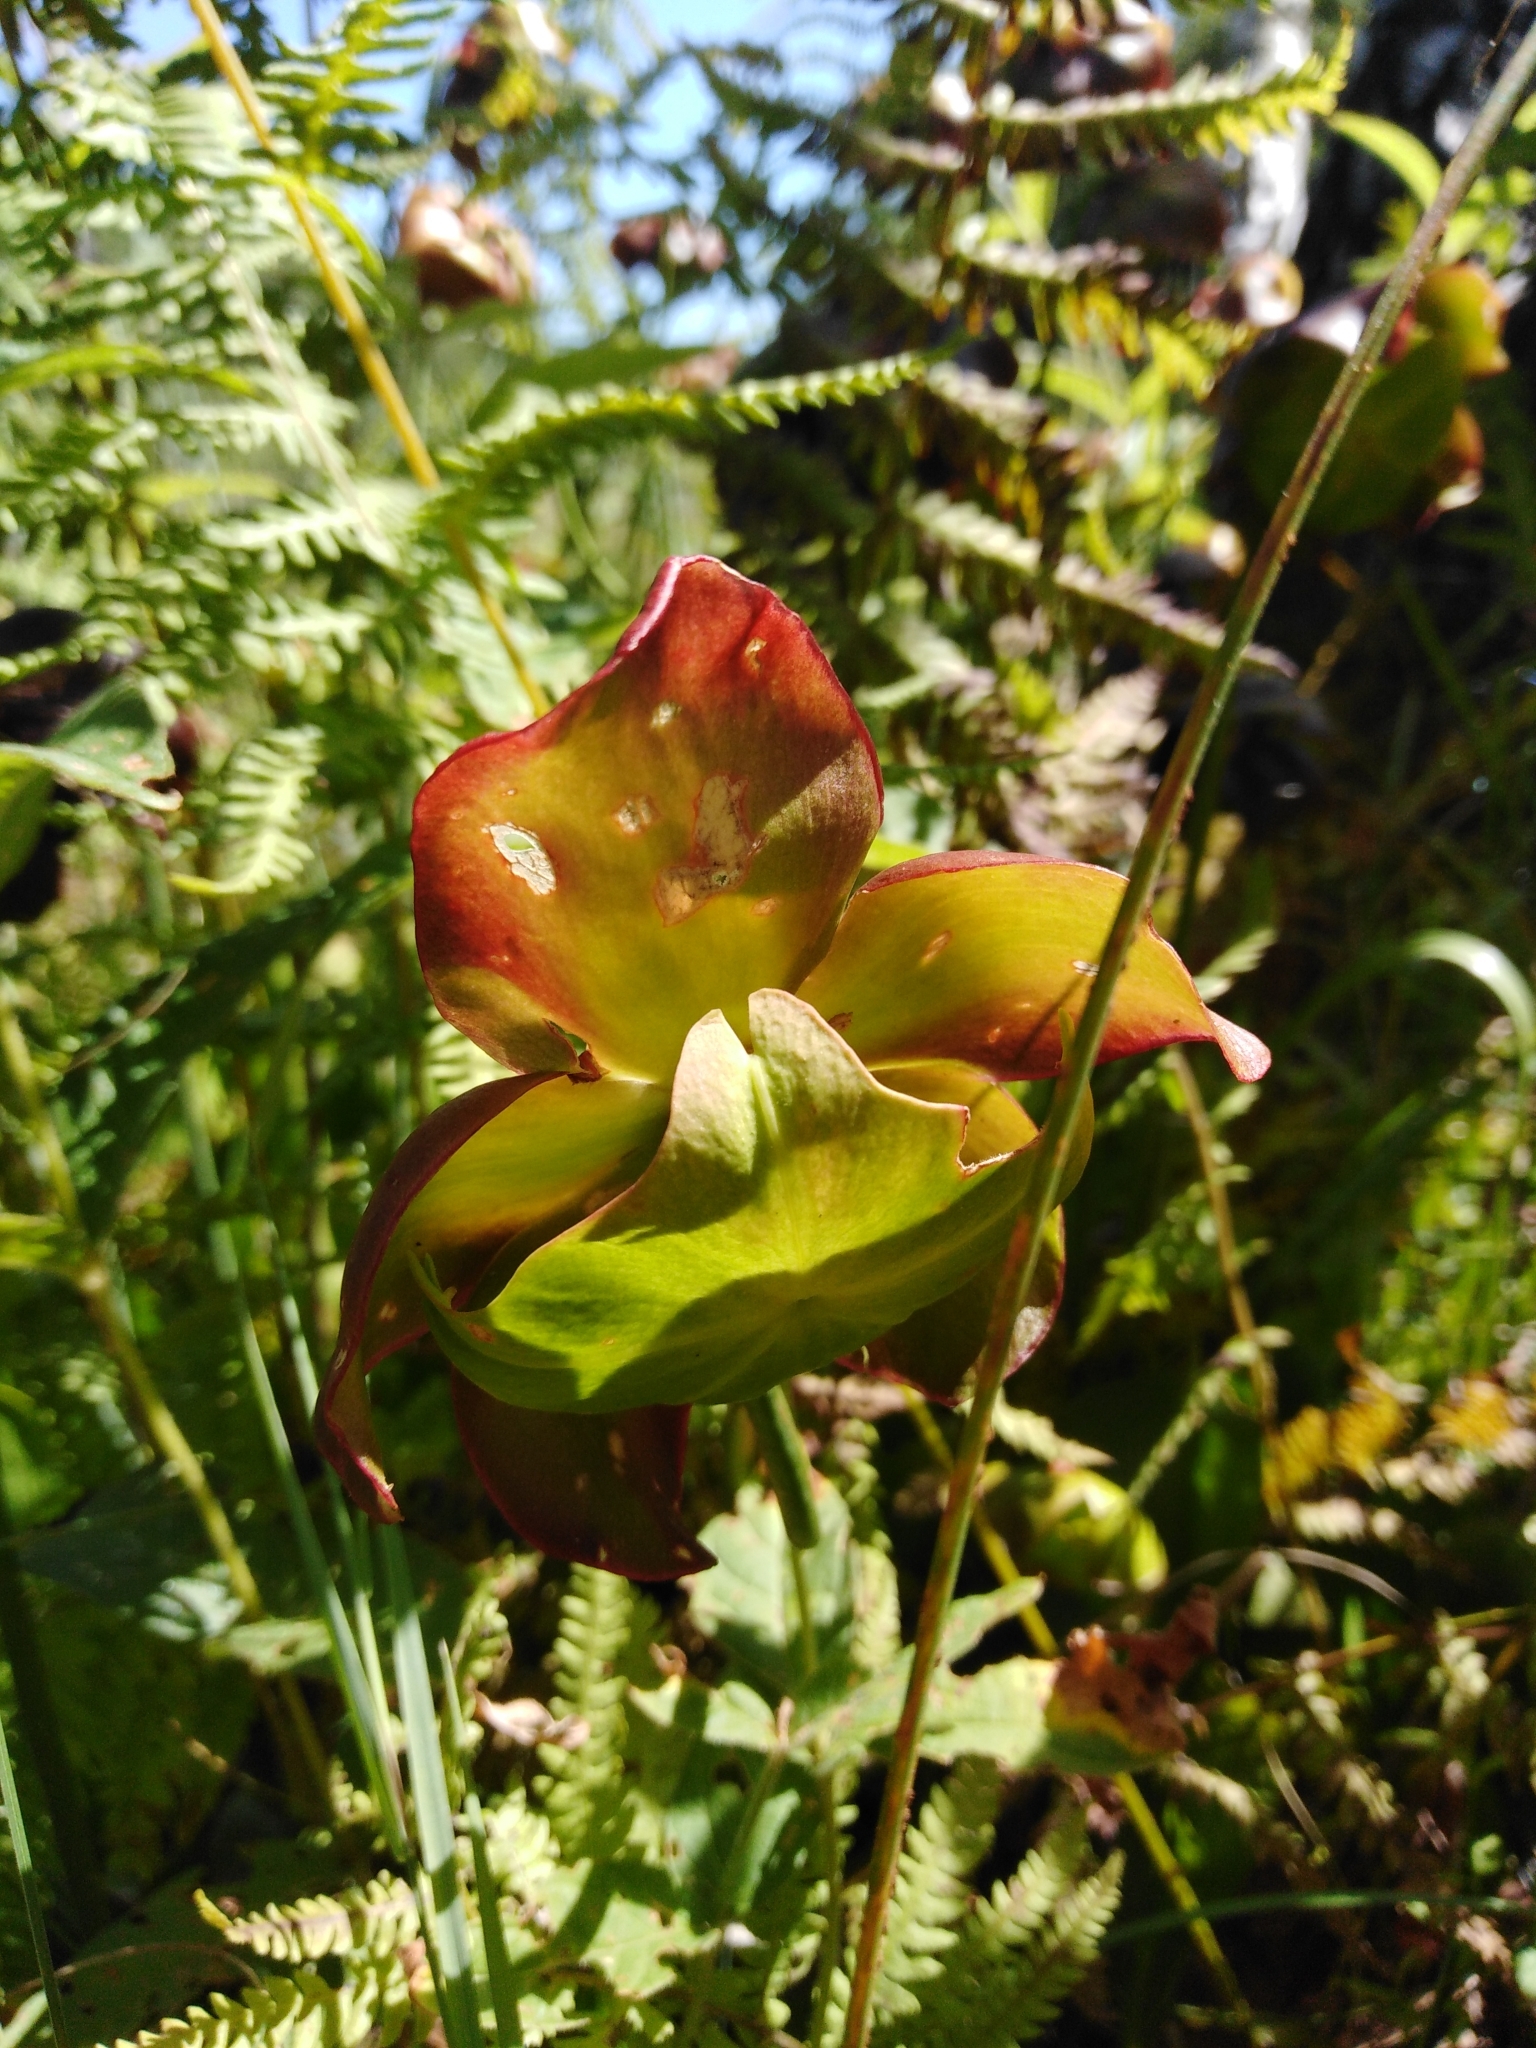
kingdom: Plantae
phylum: Tracheophyta
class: Magnoliopsida
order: Ericales
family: Sarraceniaceae
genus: Sarracenia
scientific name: Sarracenia purpurea
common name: Pitcherplant
